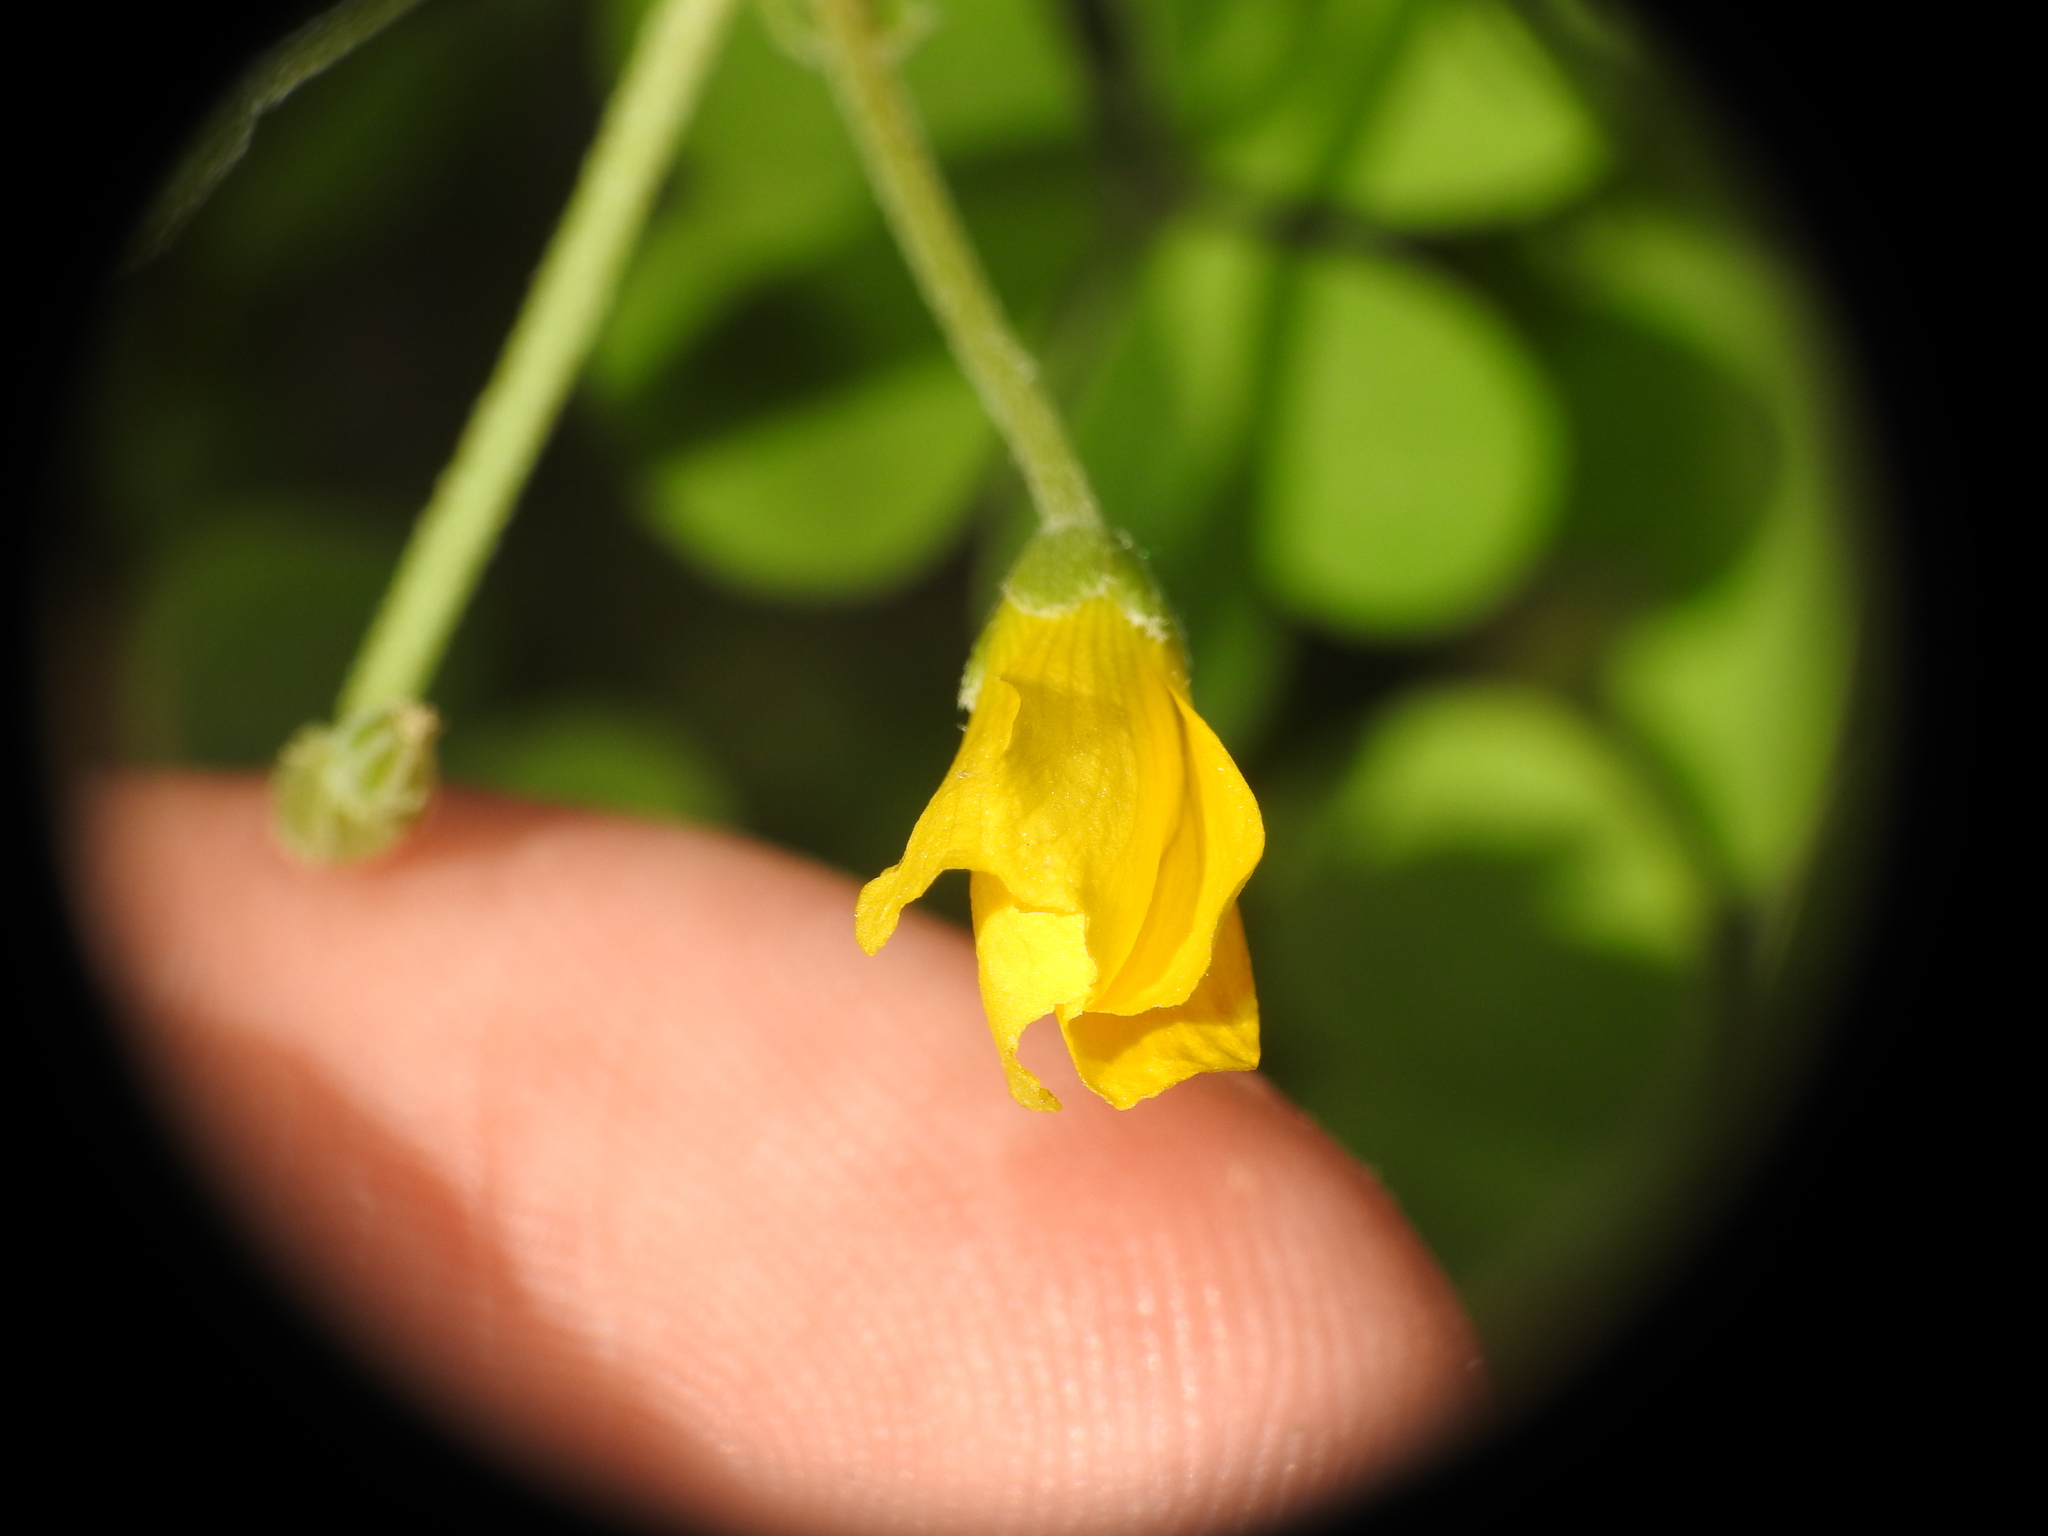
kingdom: Plantae
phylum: Tracheophyta
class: Magnoliopsida
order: Oxalidales
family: Oxalidaceae
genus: Oxalis
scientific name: Oxalis dillenii
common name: Sussex yellow-sorrel
